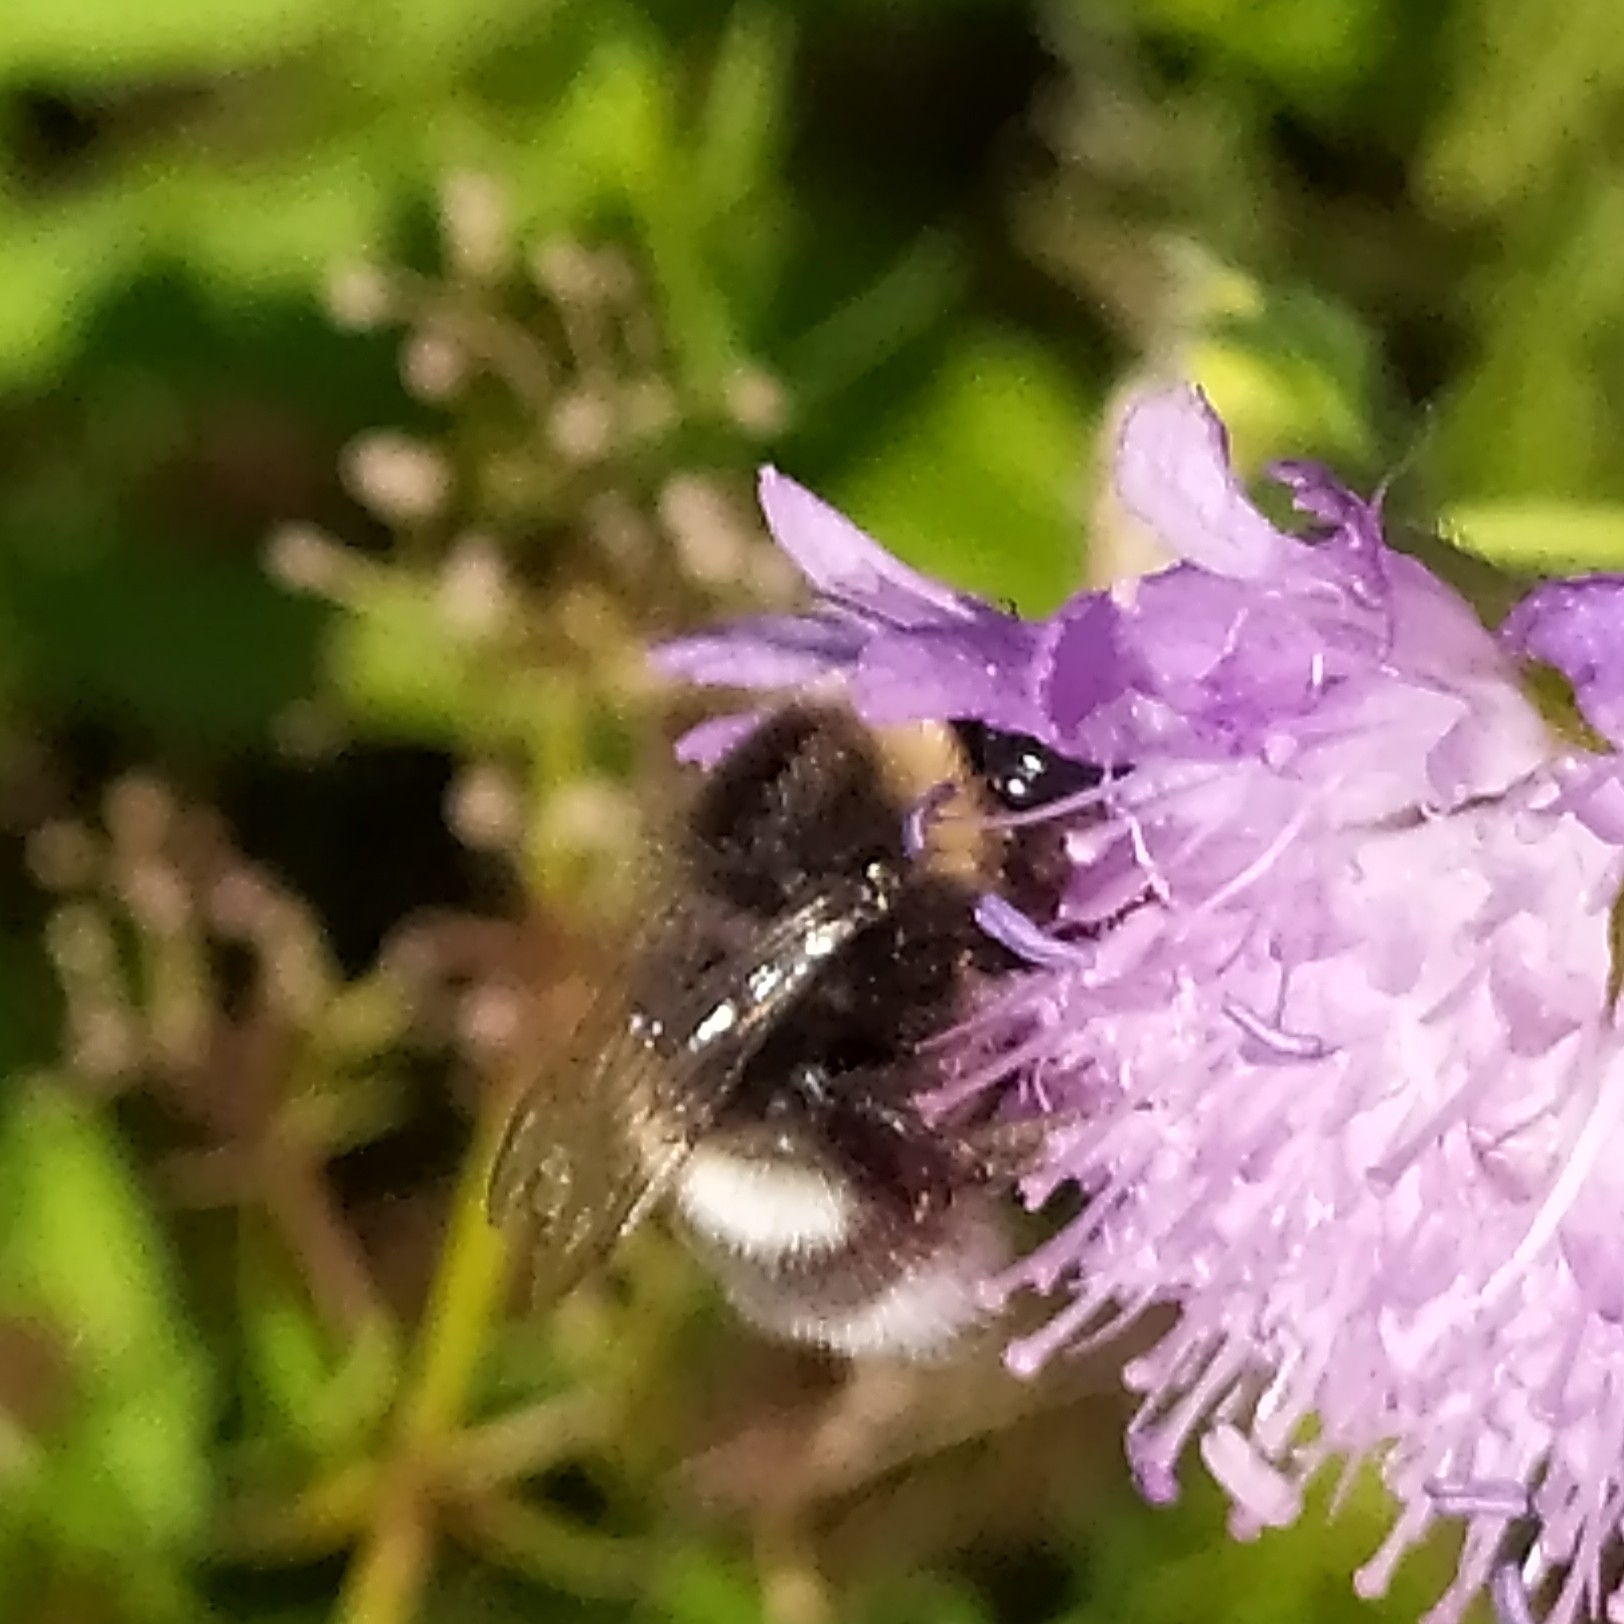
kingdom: Animalia
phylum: Arthropoda
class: Insecta
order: Hymenoptera
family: Apidae
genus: Bombus
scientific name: Bombus
